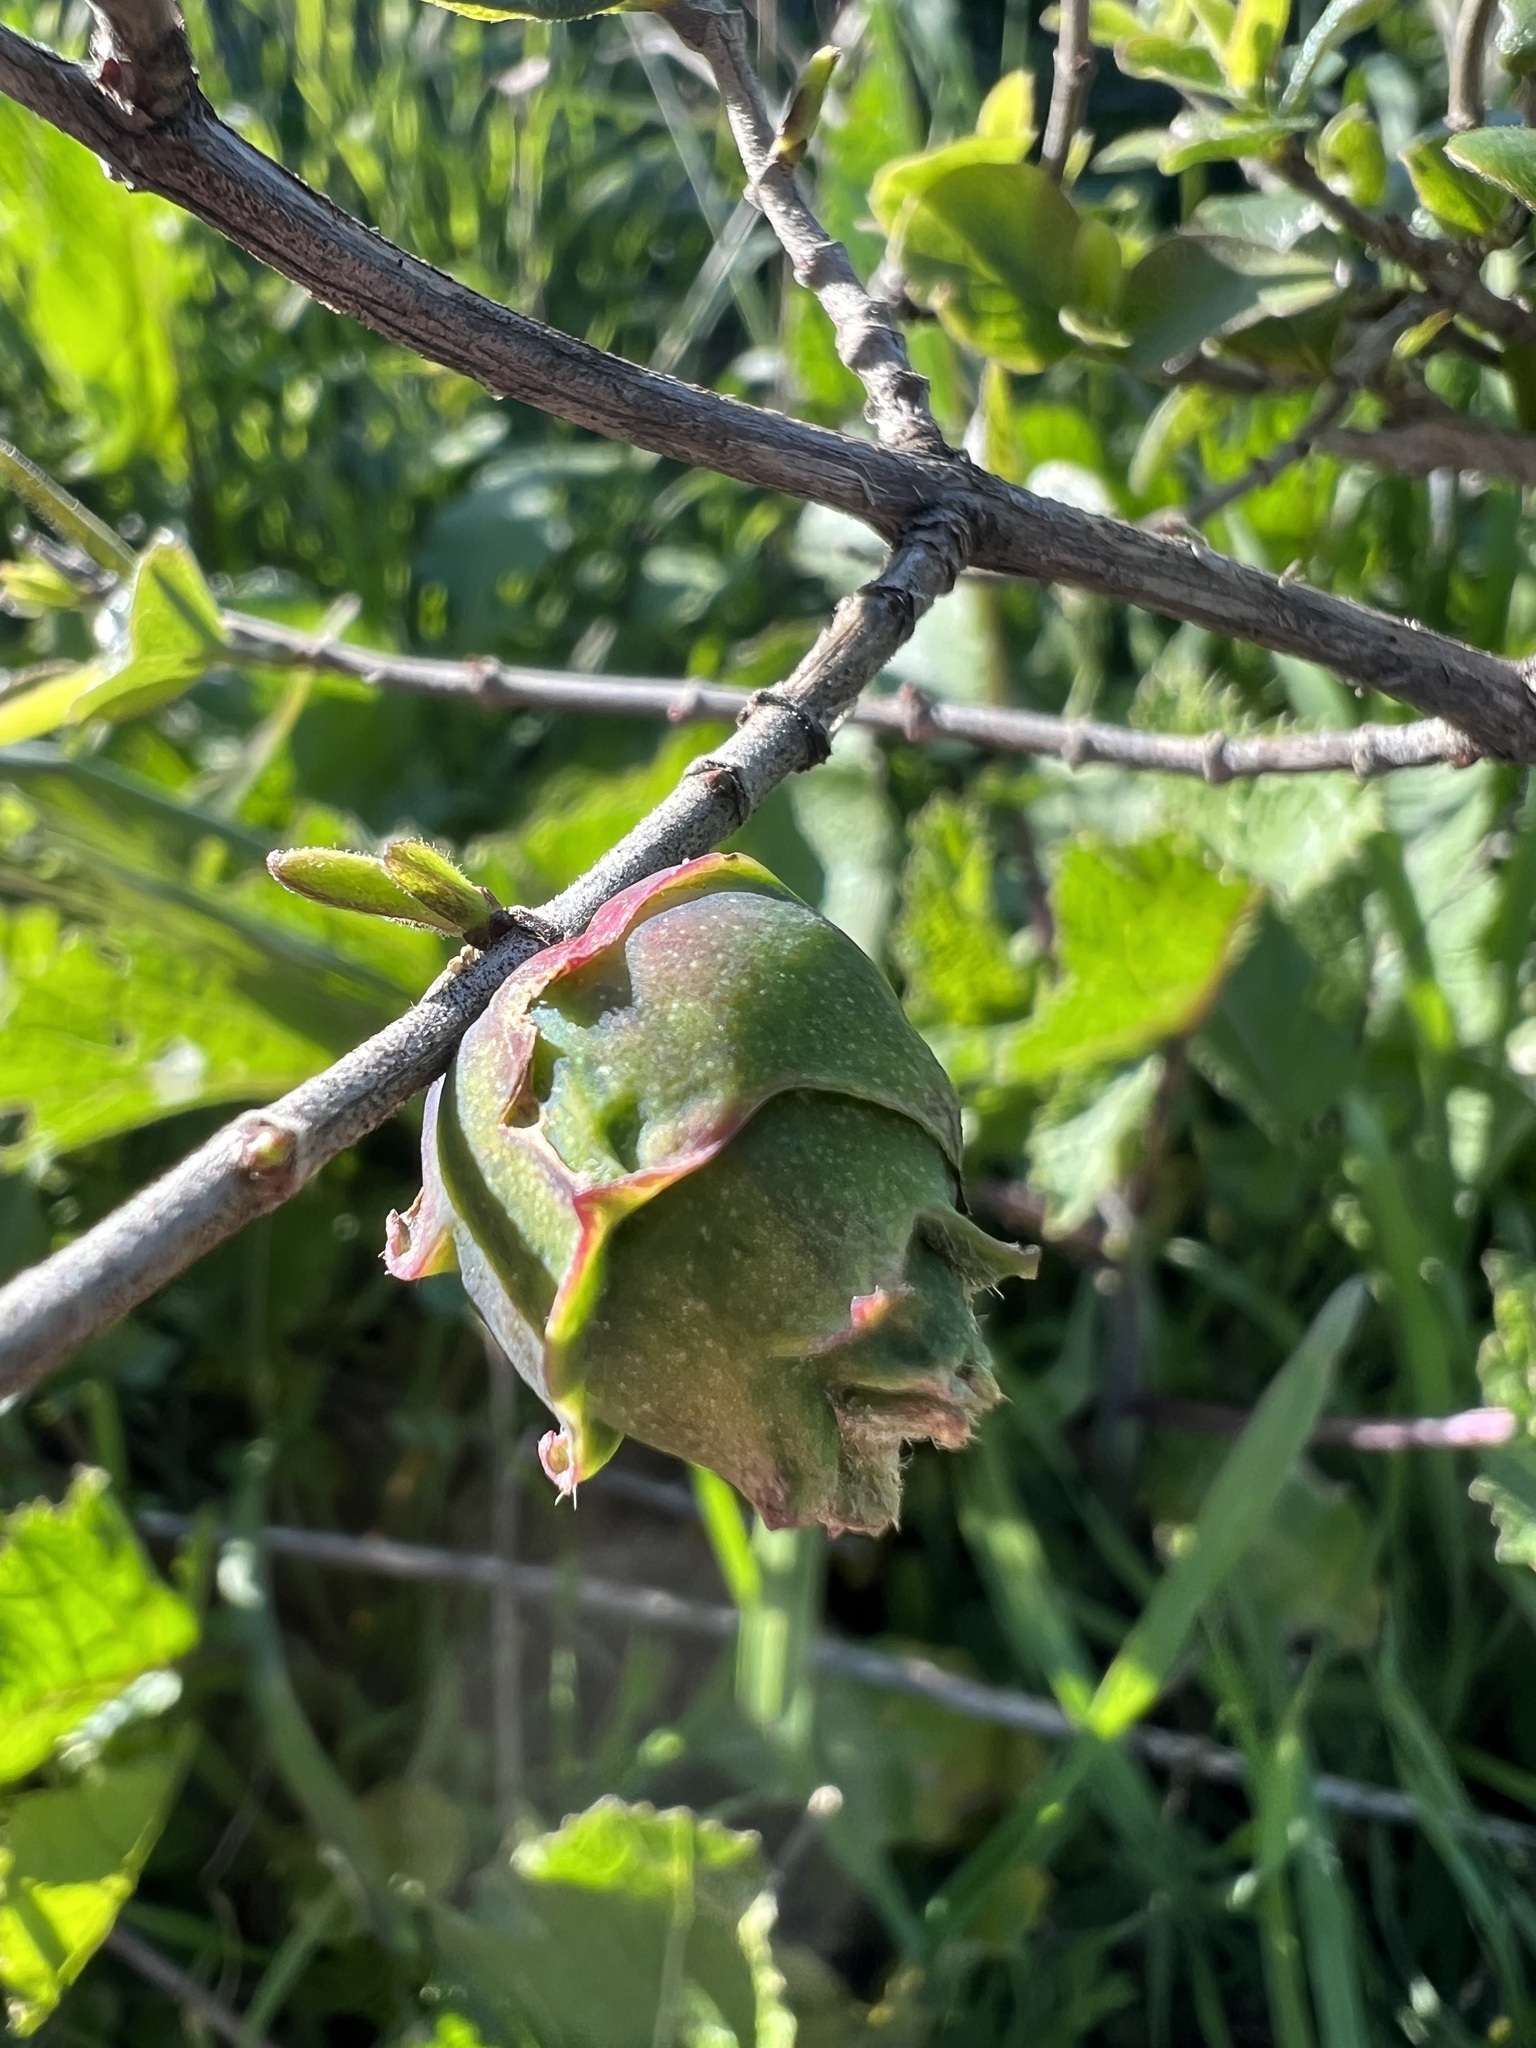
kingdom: Animalia
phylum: Arthropoda
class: Insecta
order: Diptera
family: Cecidomyiidae
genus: Lonicerae
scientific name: Lonicerae
